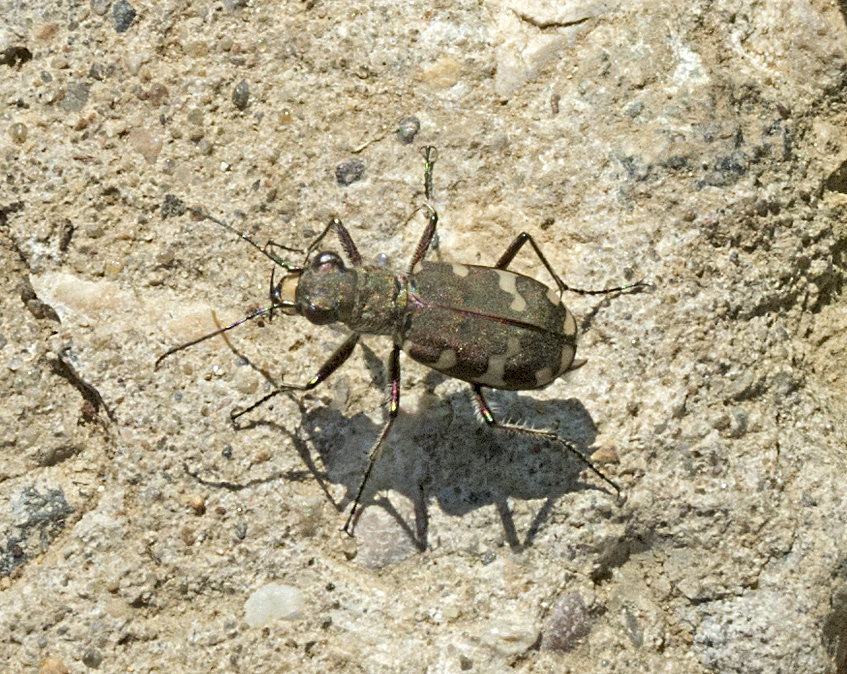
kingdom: Animalia
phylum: Arthropoda
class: Insecta
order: Coleoptera
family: Carabidae
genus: Cicindela
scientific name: Cicindela hybrida
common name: Northern dune tiger beetle
